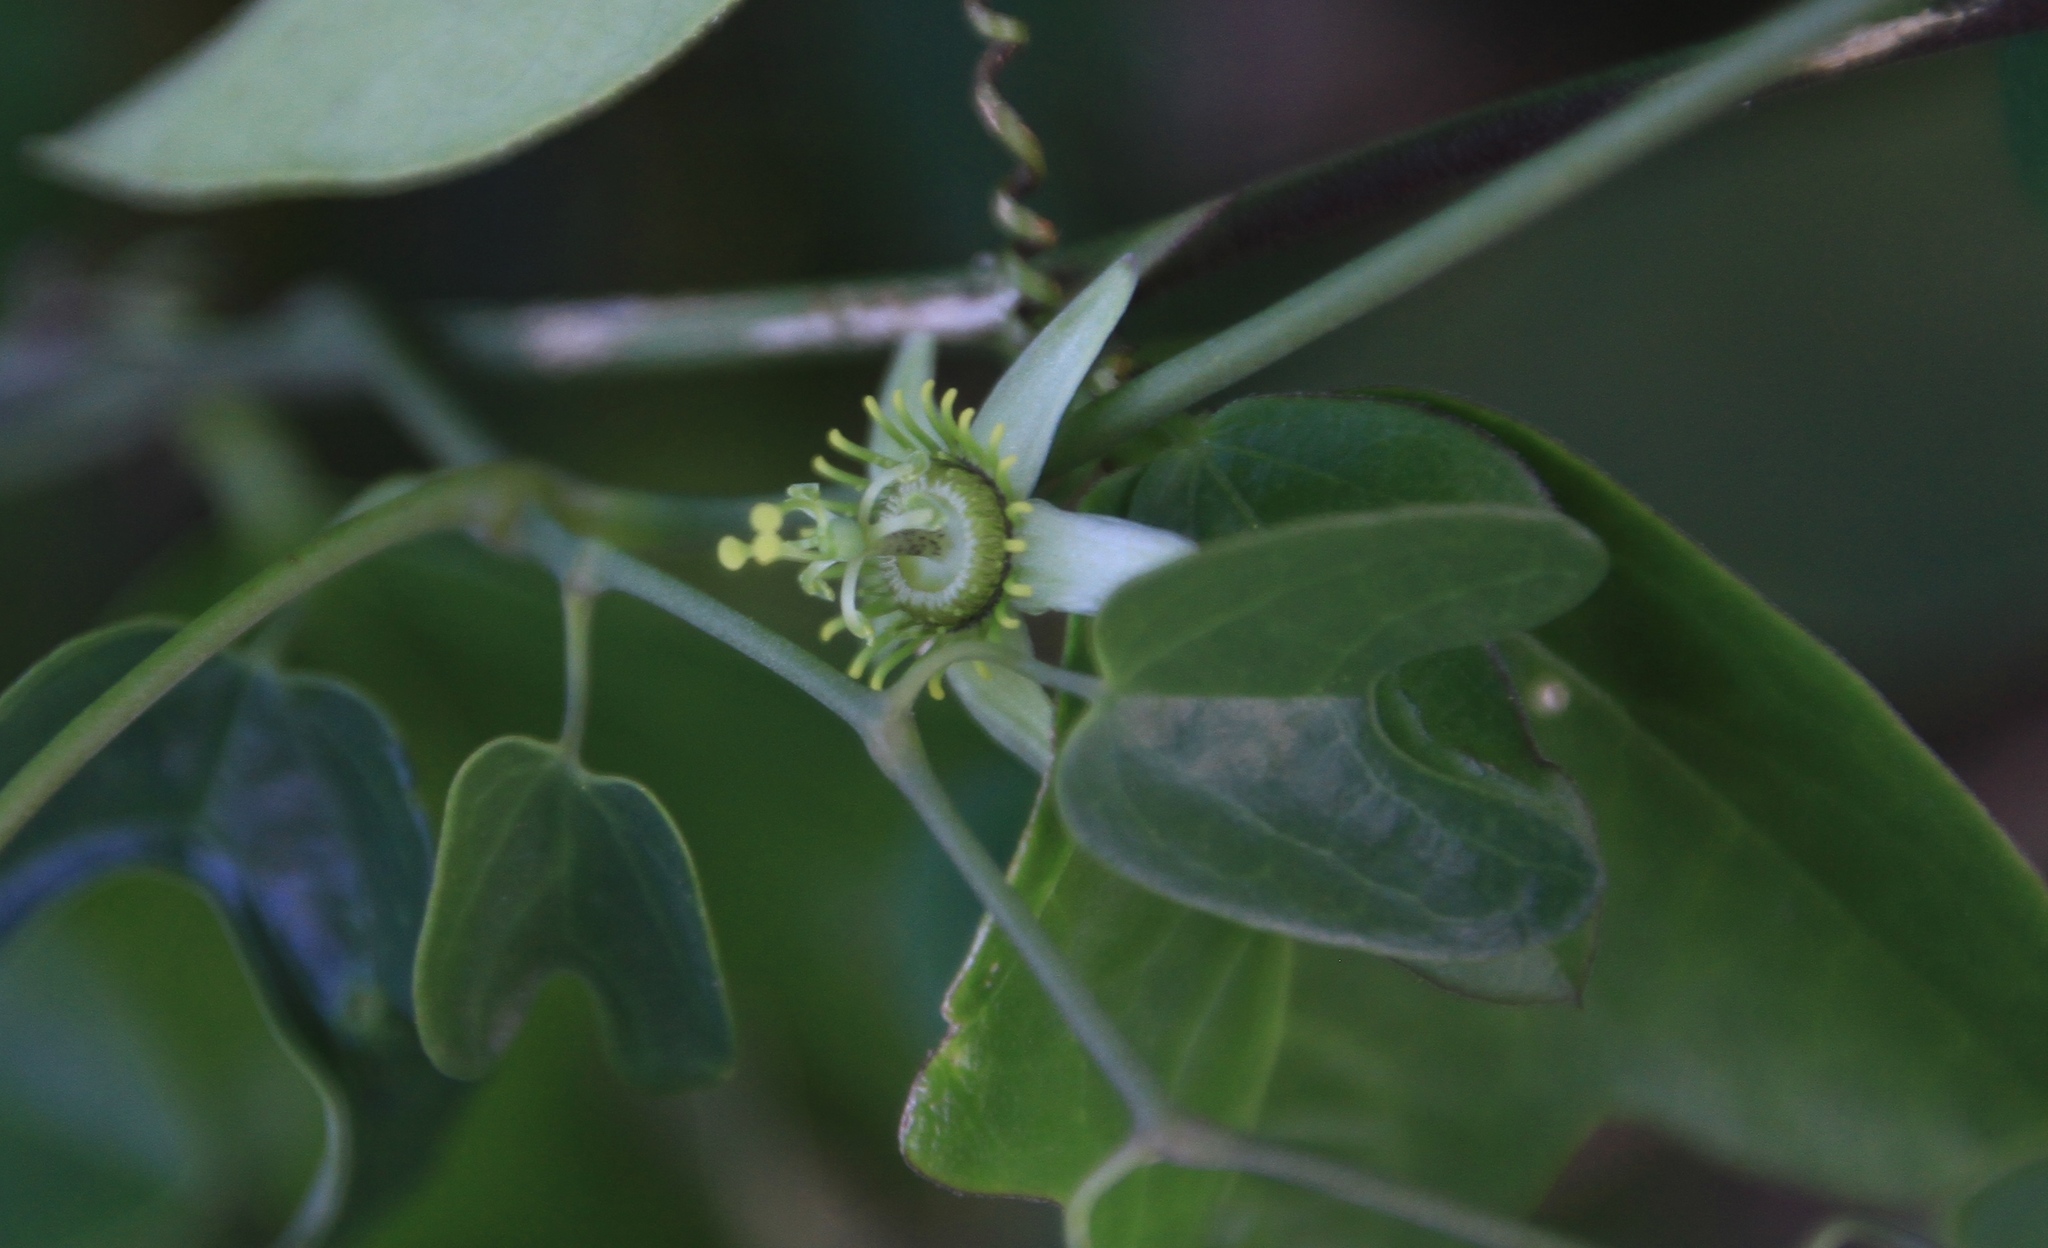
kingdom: Plantae
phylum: Tracheophyta
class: Magnoliopsida
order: Malpighiales
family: Passifloraceae
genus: Passiflora
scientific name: Passiflora pallida
